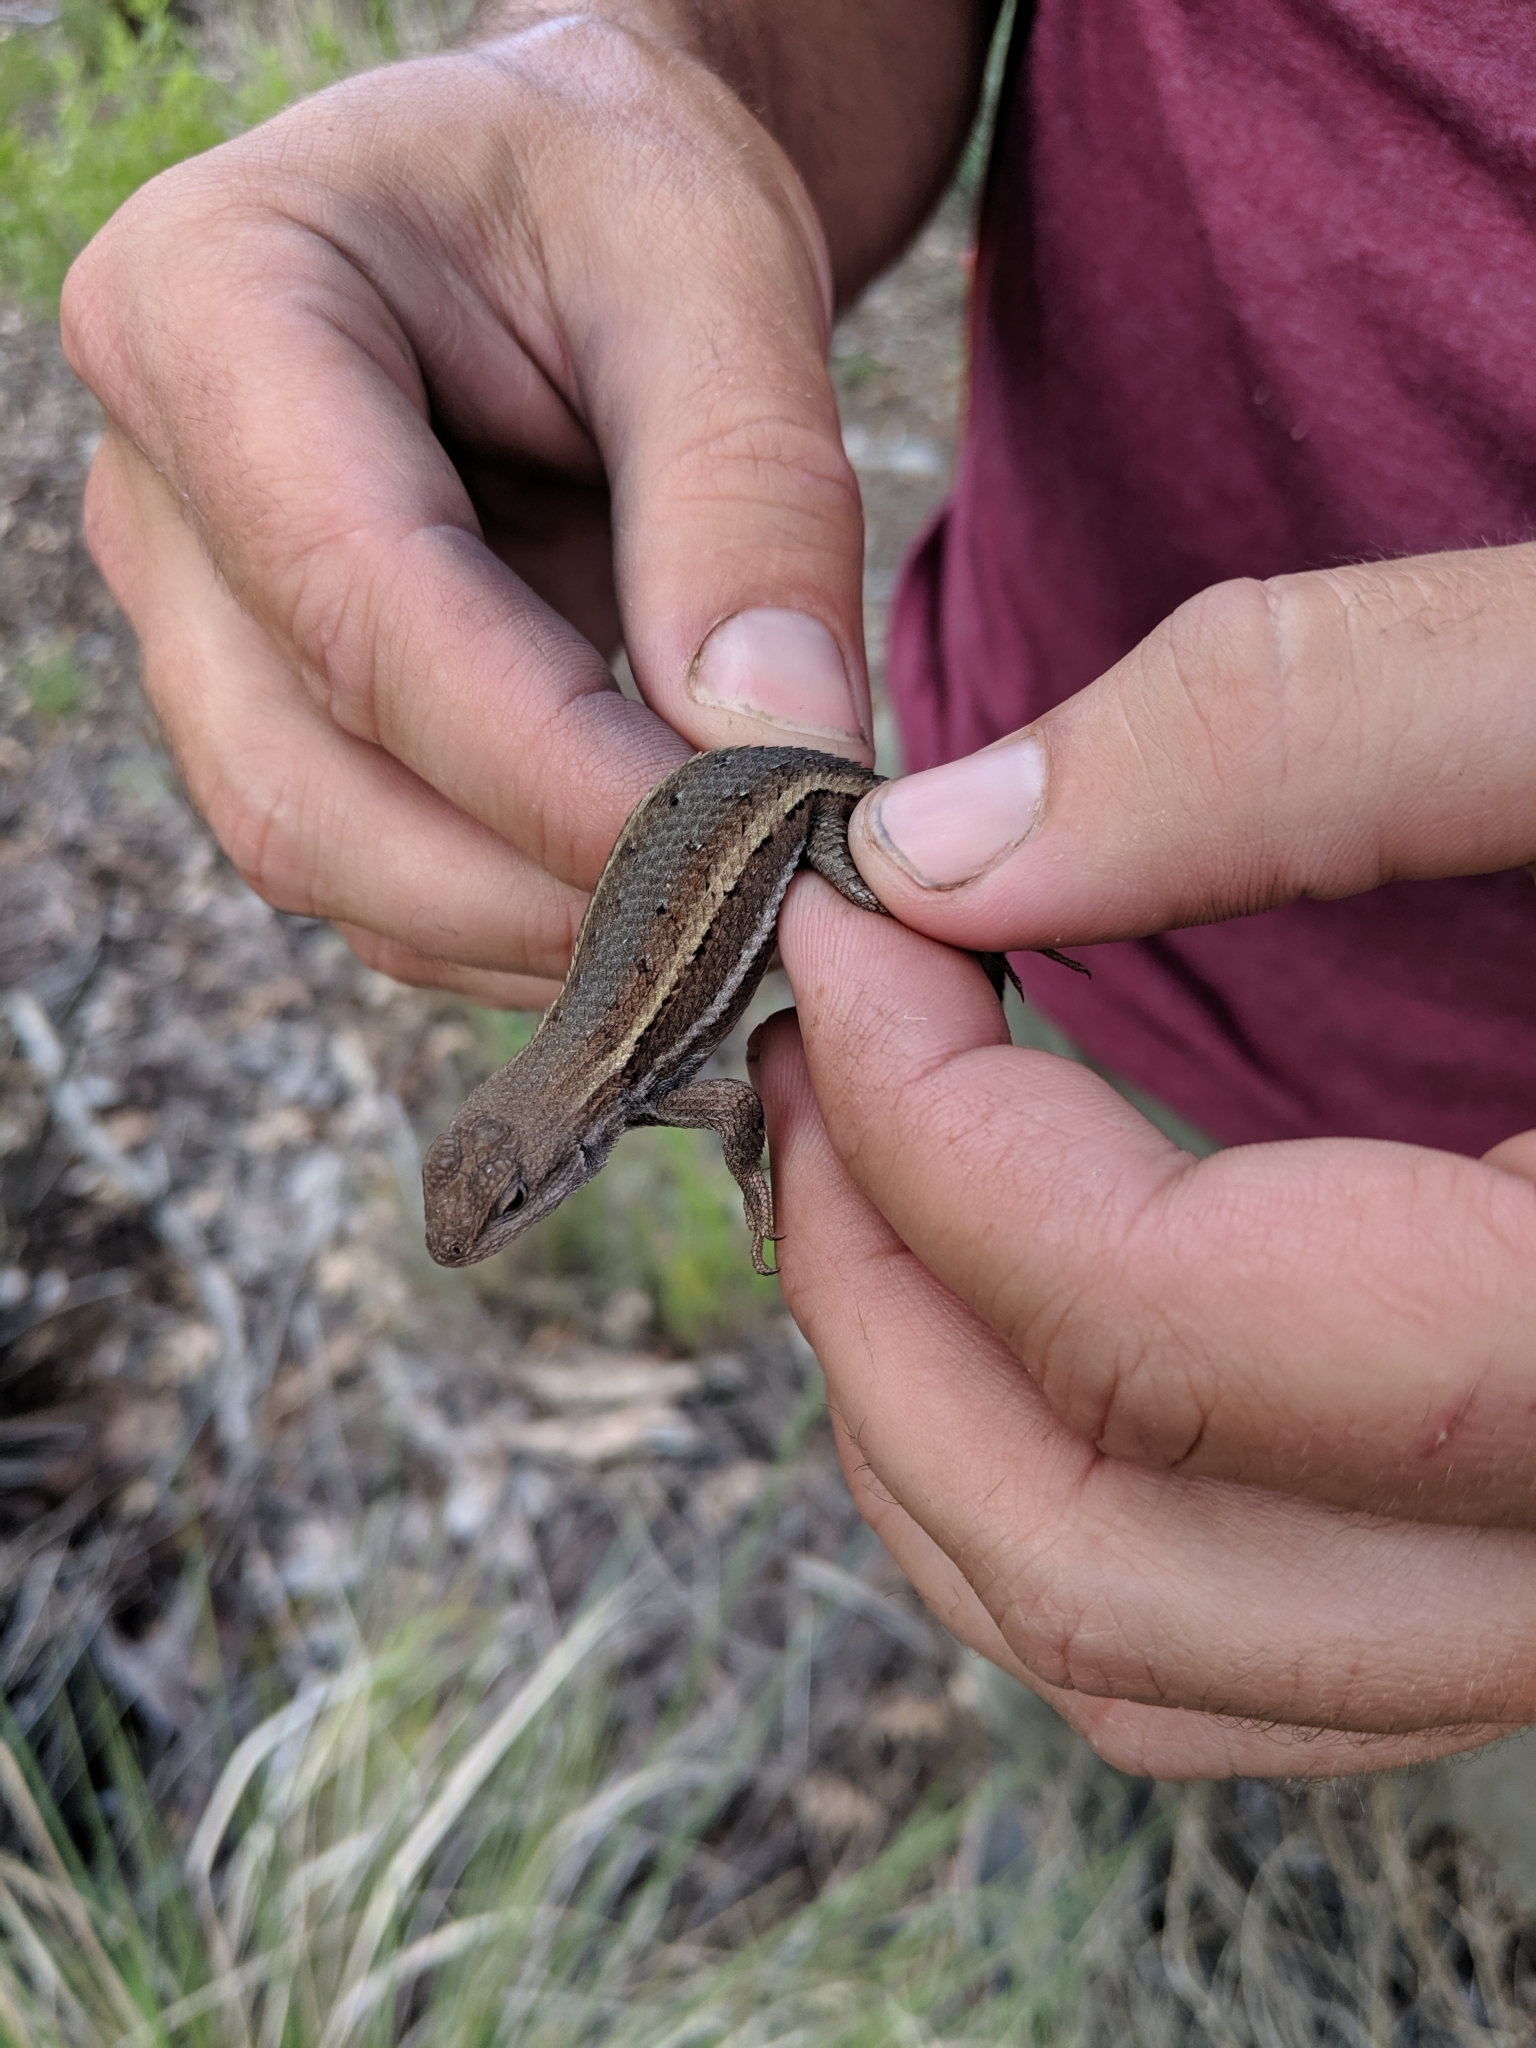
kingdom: Animalia
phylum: Chordata
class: Squamata
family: Phrynosomatidae
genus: Sceloporus
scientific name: Sceloporus virgatus
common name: Striped plateau lizard
